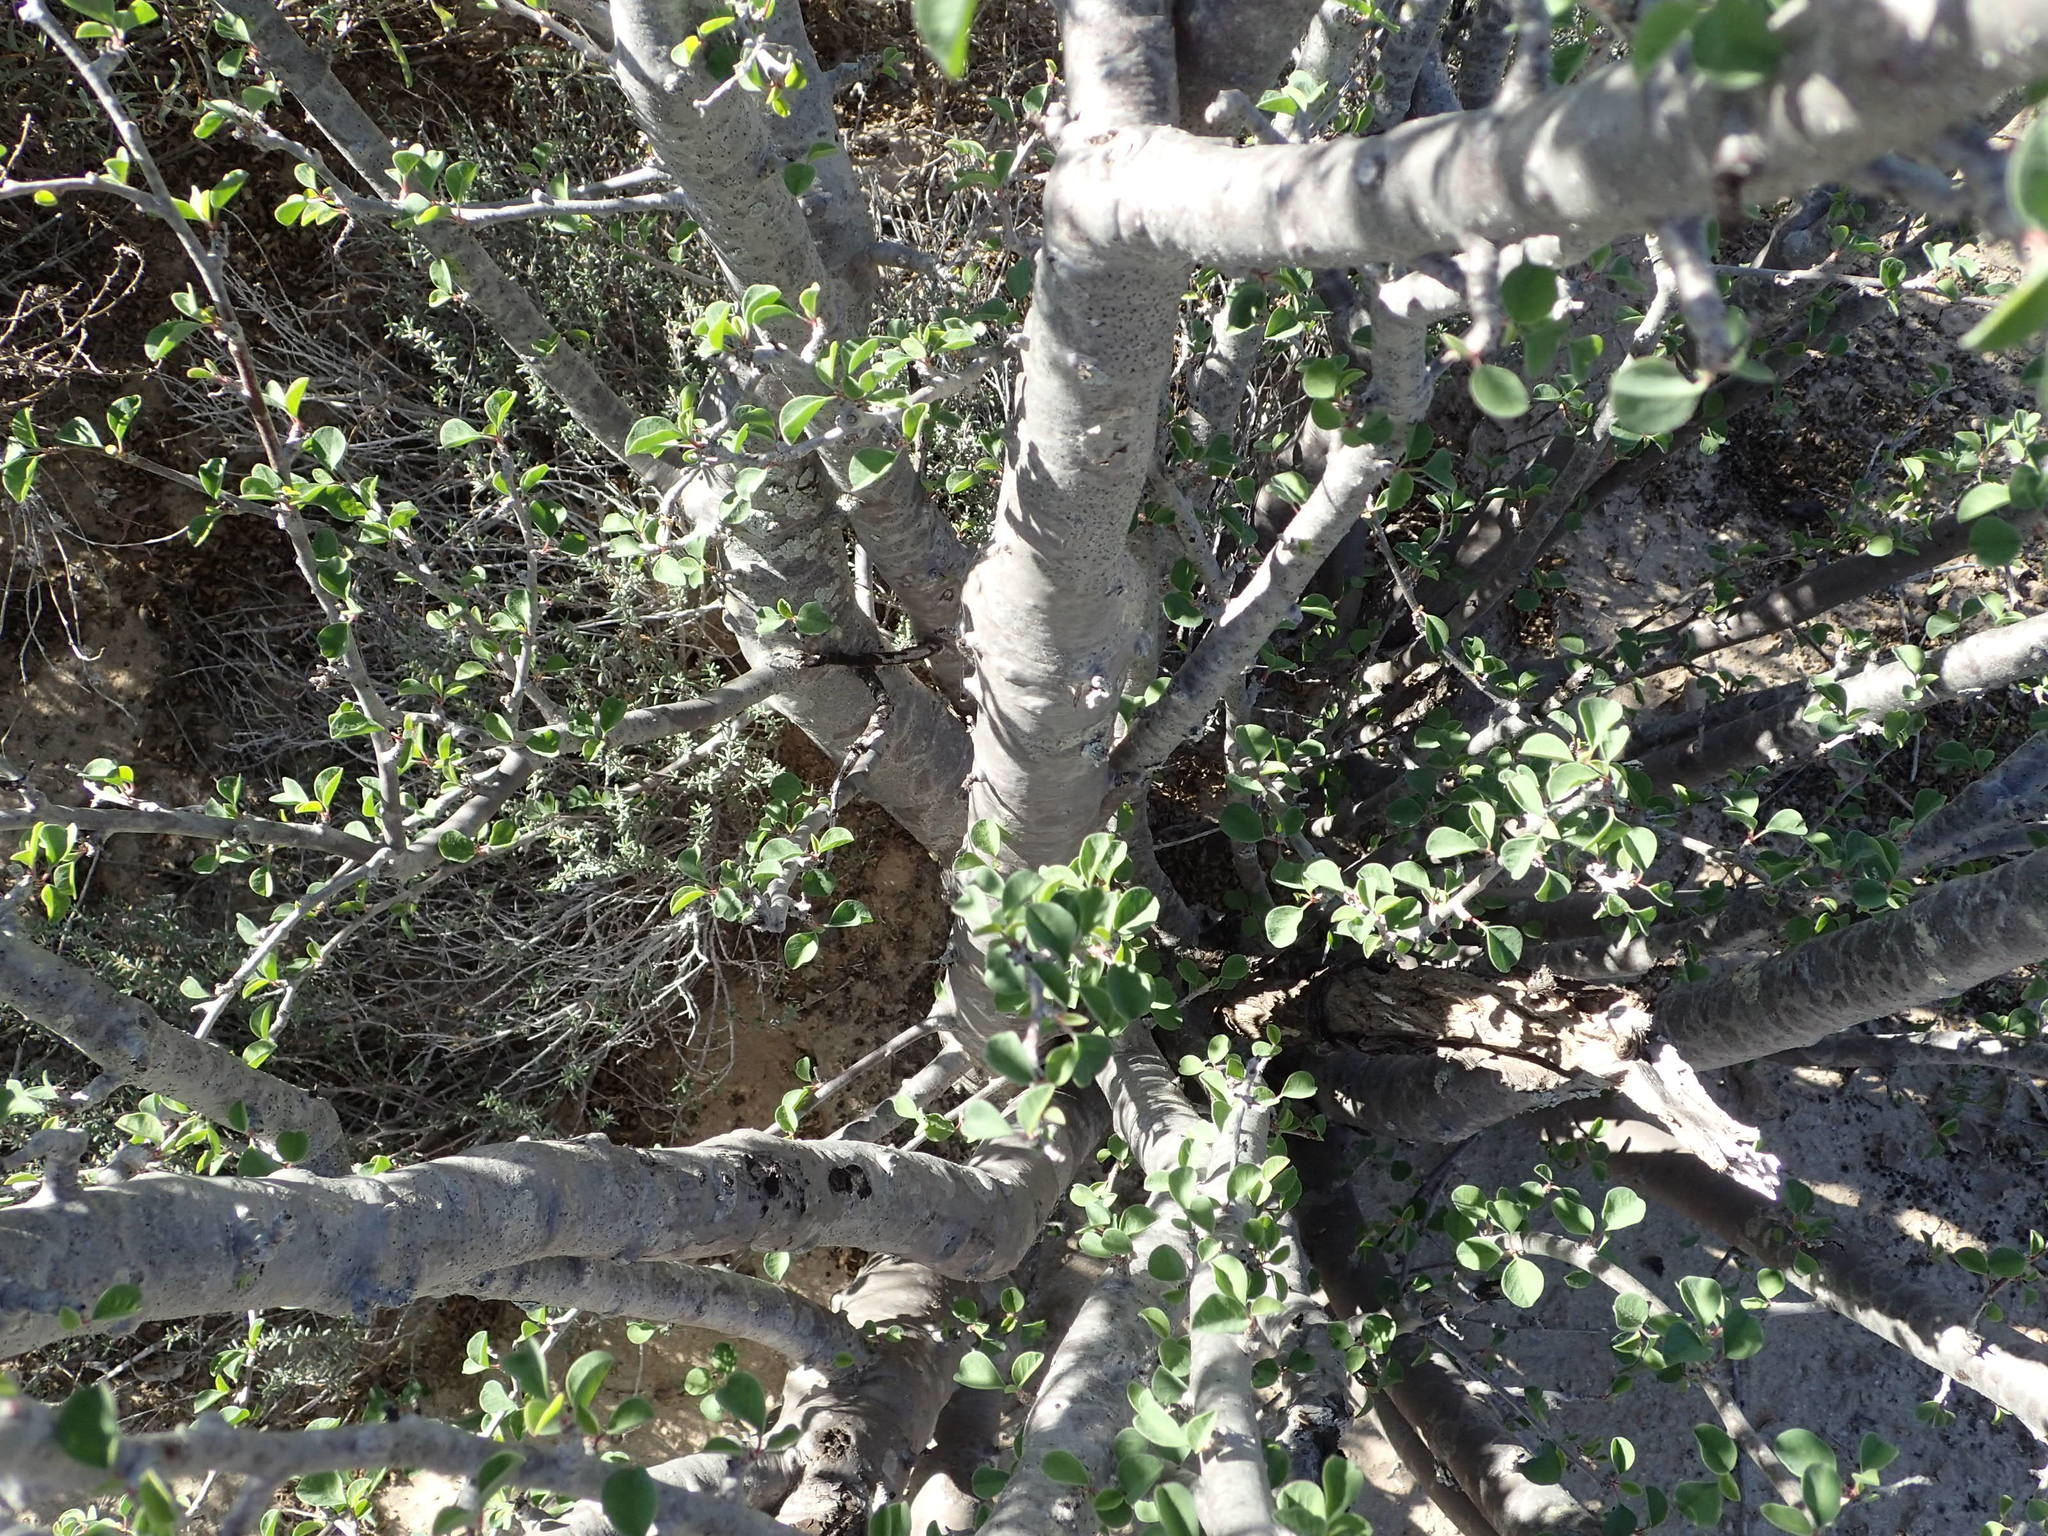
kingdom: Plantae
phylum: Tracheophyta
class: Magnoliopsida
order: Malpighiales
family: Euphorbiaceae
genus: Euphorbia
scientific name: Euphorbia misera
